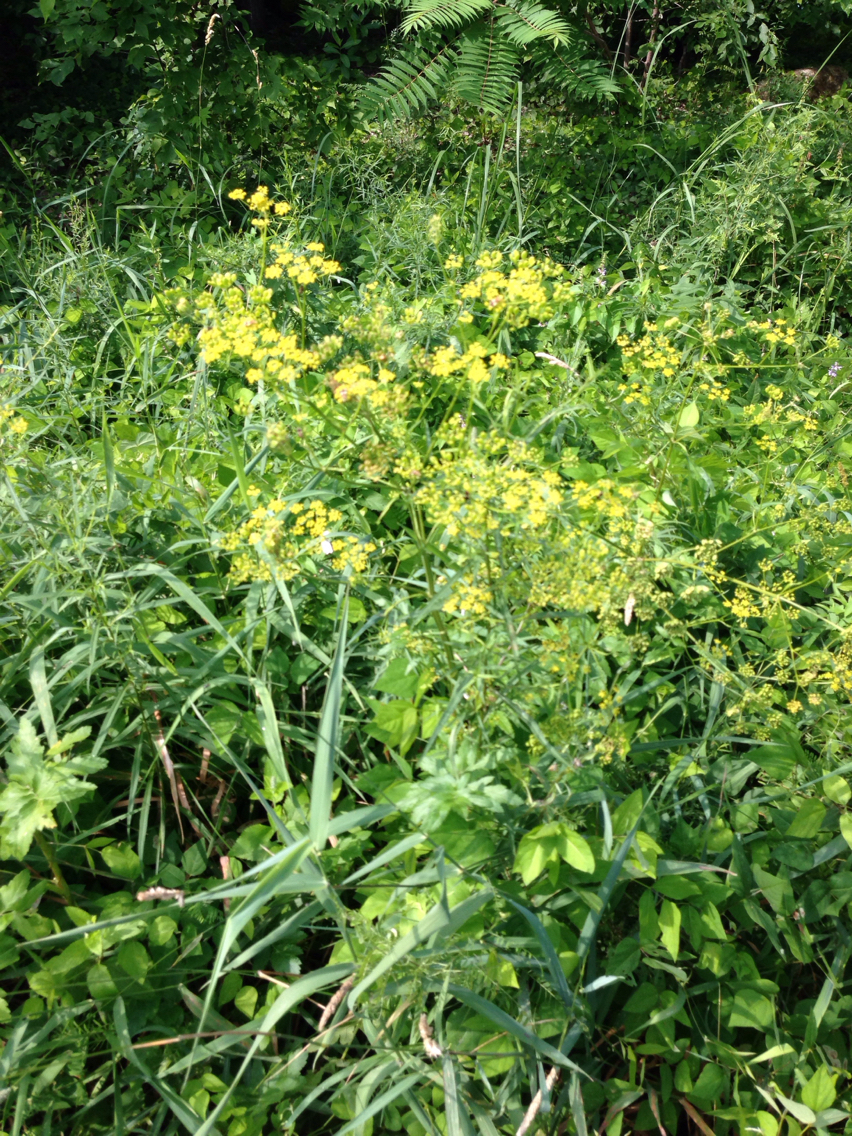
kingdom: Plantae
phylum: Tracheophyta
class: Magnoliopsida
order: Apiales
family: Apiaceae
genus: Pastinaca
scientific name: Pastinaca sativa
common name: Wild parsnip
